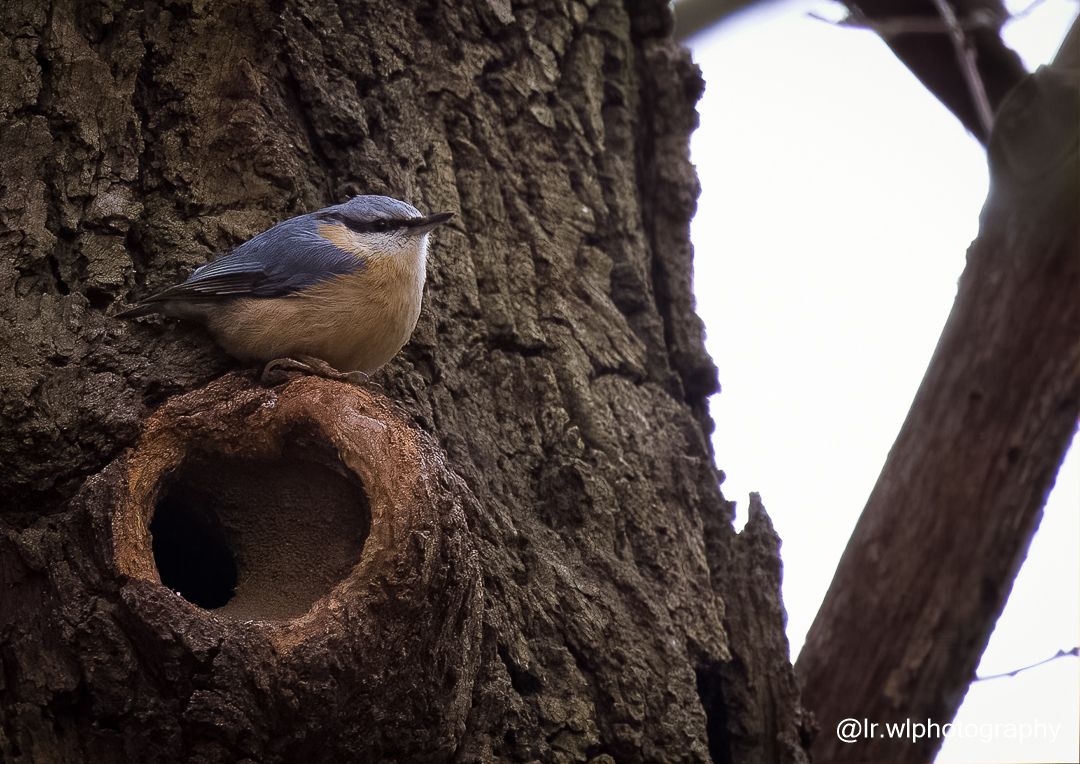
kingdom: Animalia
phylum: Chordata
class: Aves
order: Passeriformes
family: Sittidae
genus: Sitta
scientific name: Sitta europaea
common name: Eurasian nuthatch
